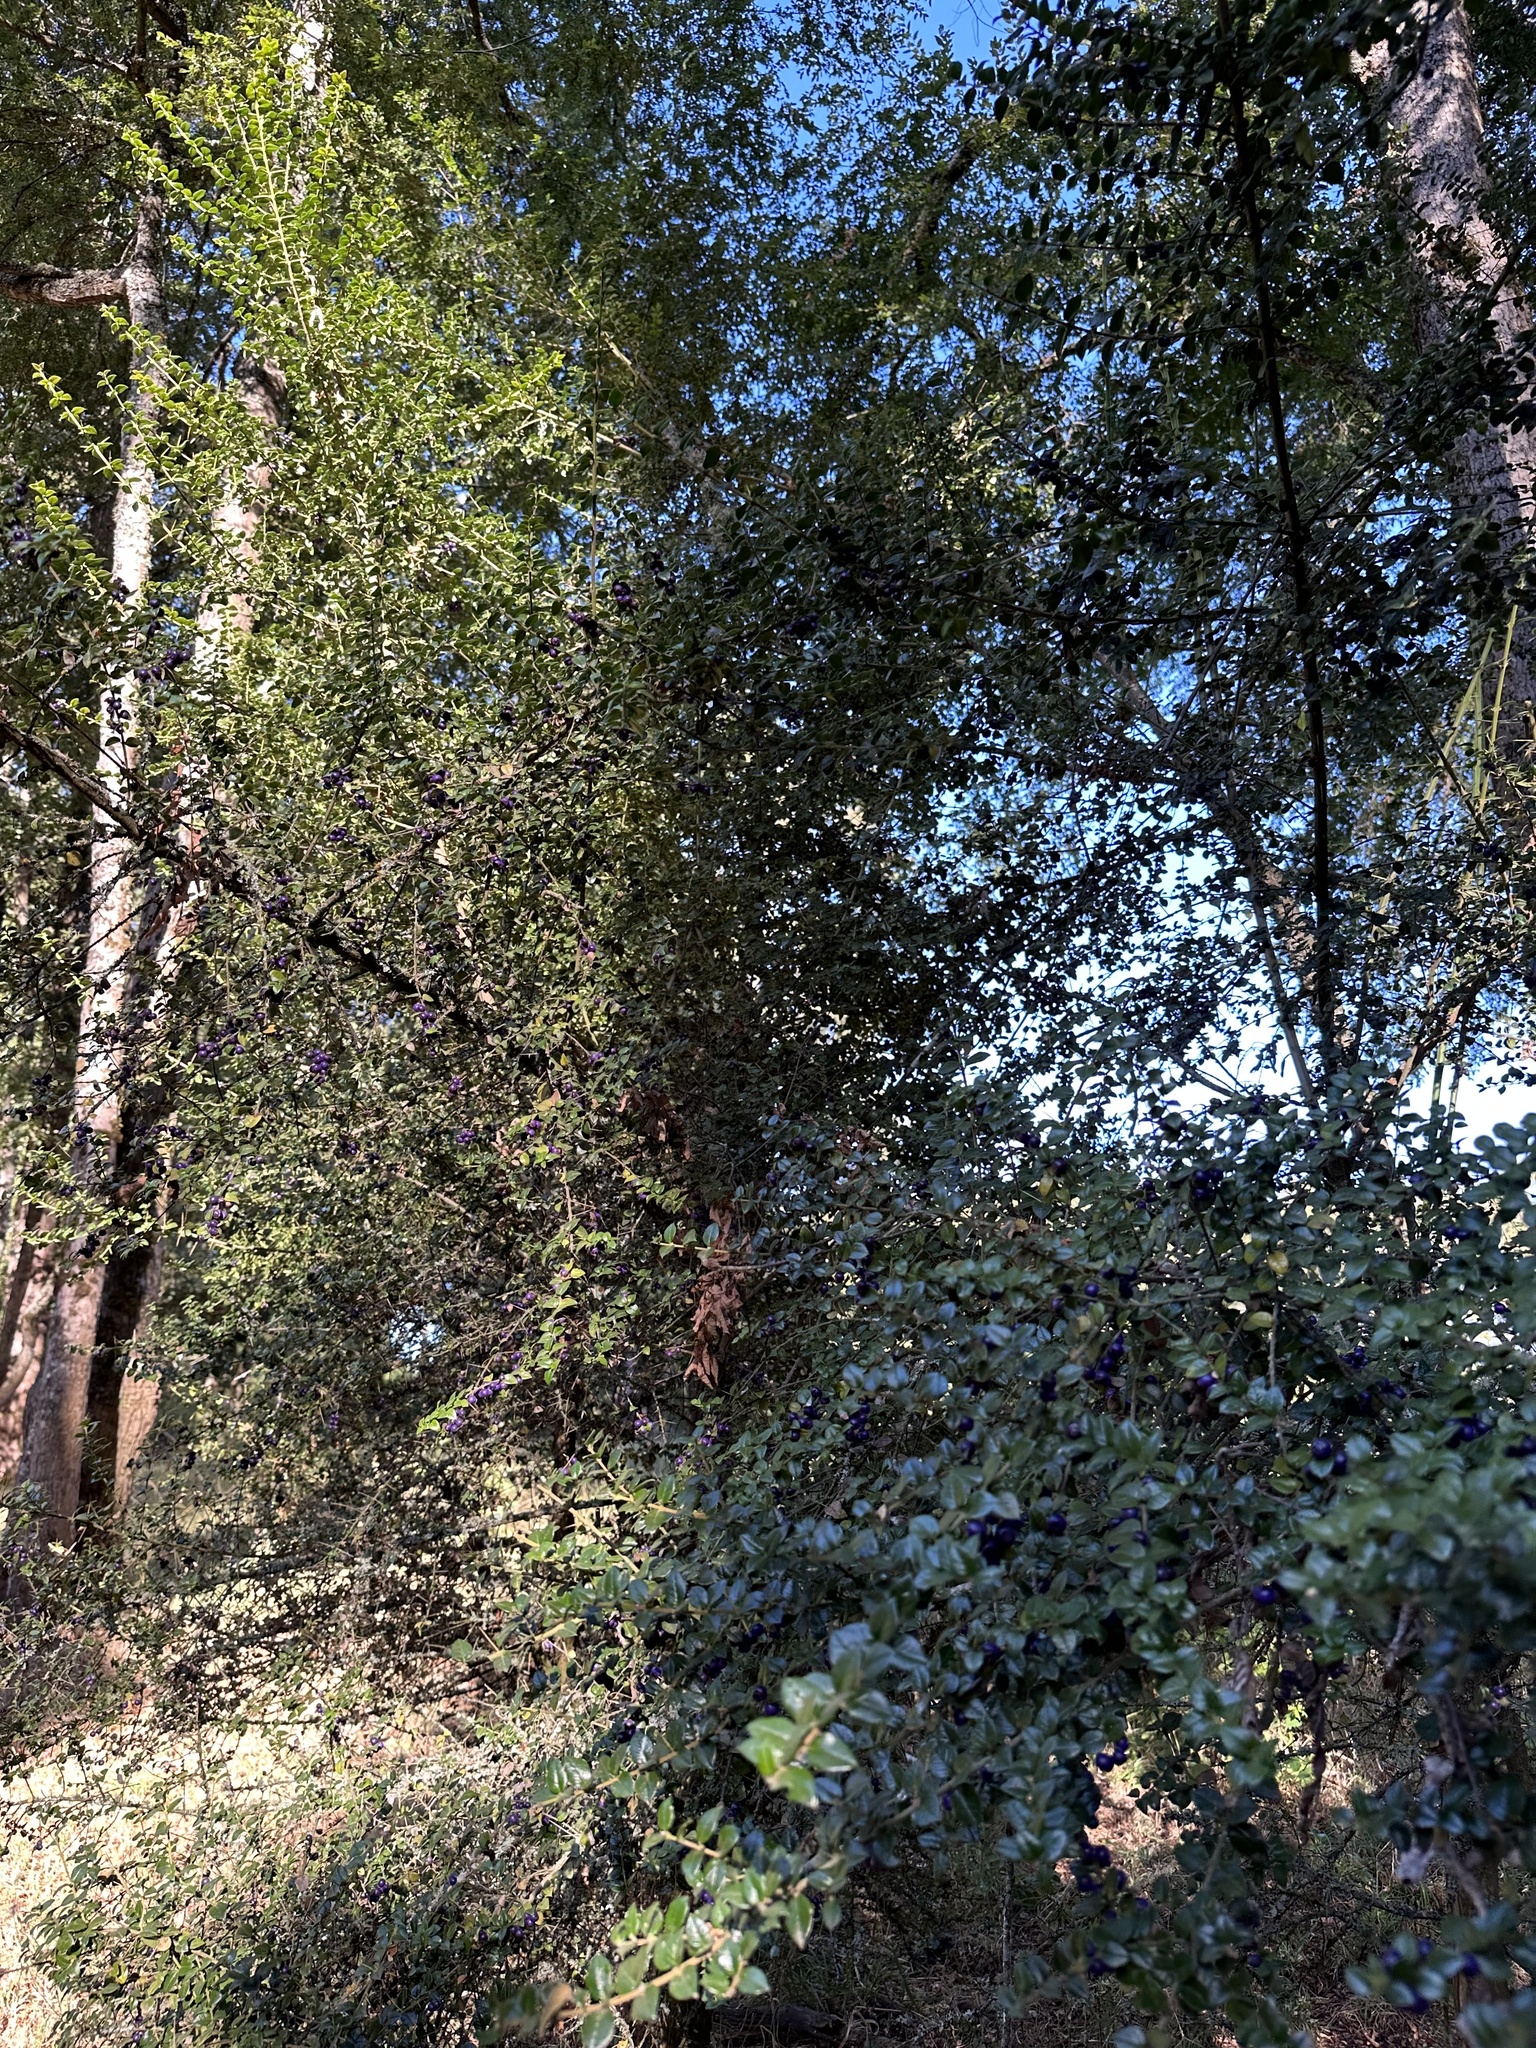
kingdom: Plantae
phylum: Tracheophyta
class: Magnoliopsida
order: Lamiales
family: Verbenaceae
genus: Rhaphithamnus
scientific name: Rhaphithamnus spinosus
